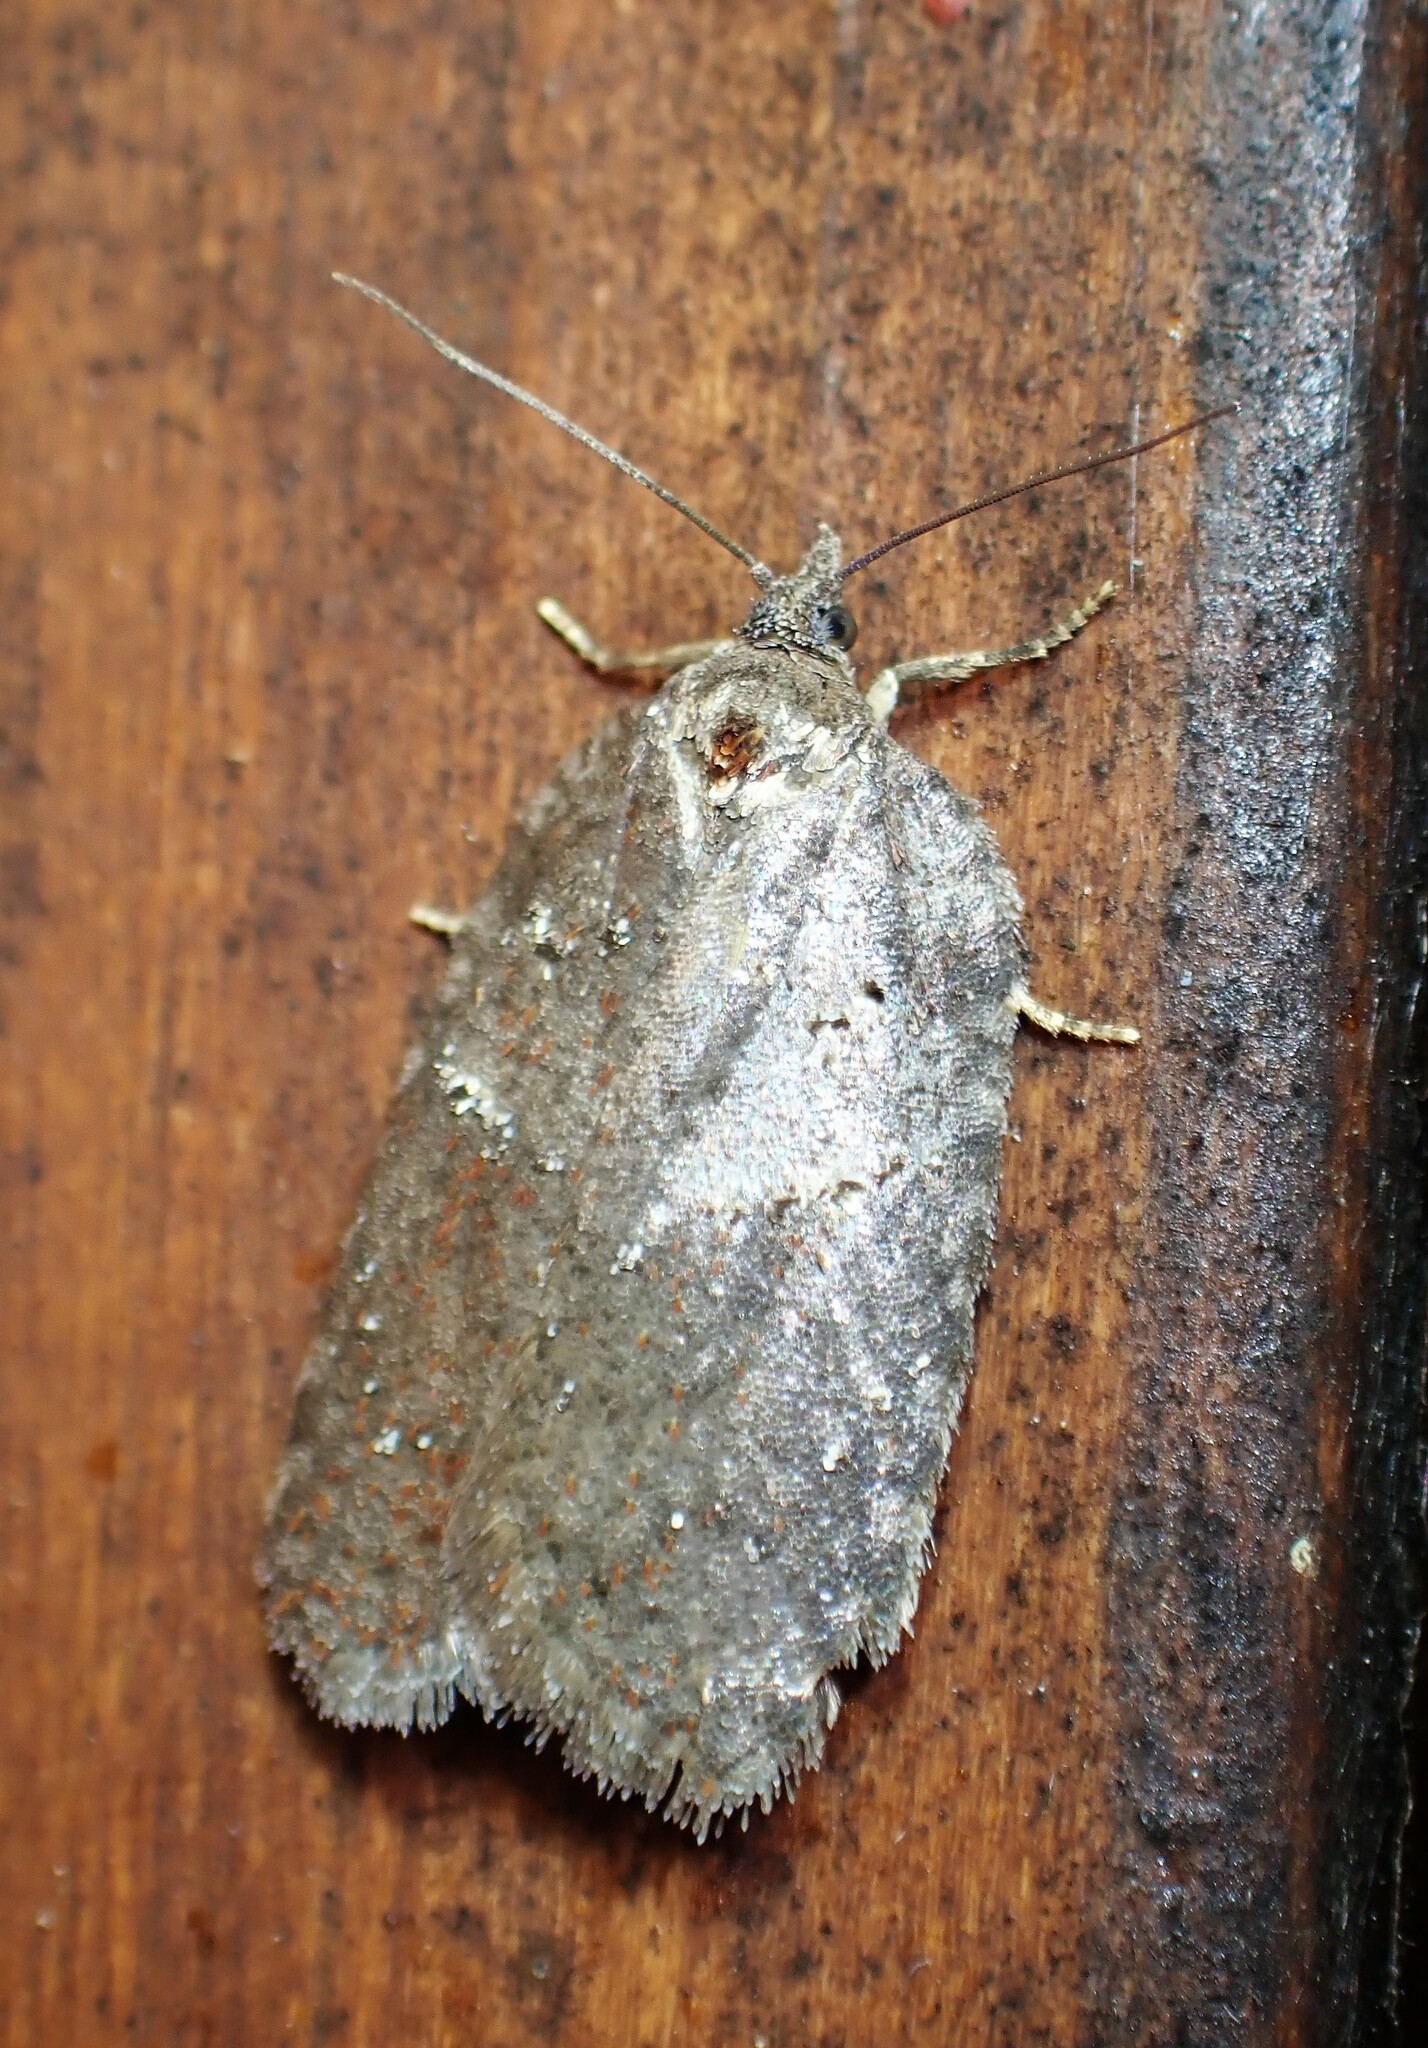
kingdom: Animalia
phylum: Arthropoda
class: Insecta
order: Lepidoptera
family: Tortricidae
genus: Acleris
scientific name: Acleris caliginosana
